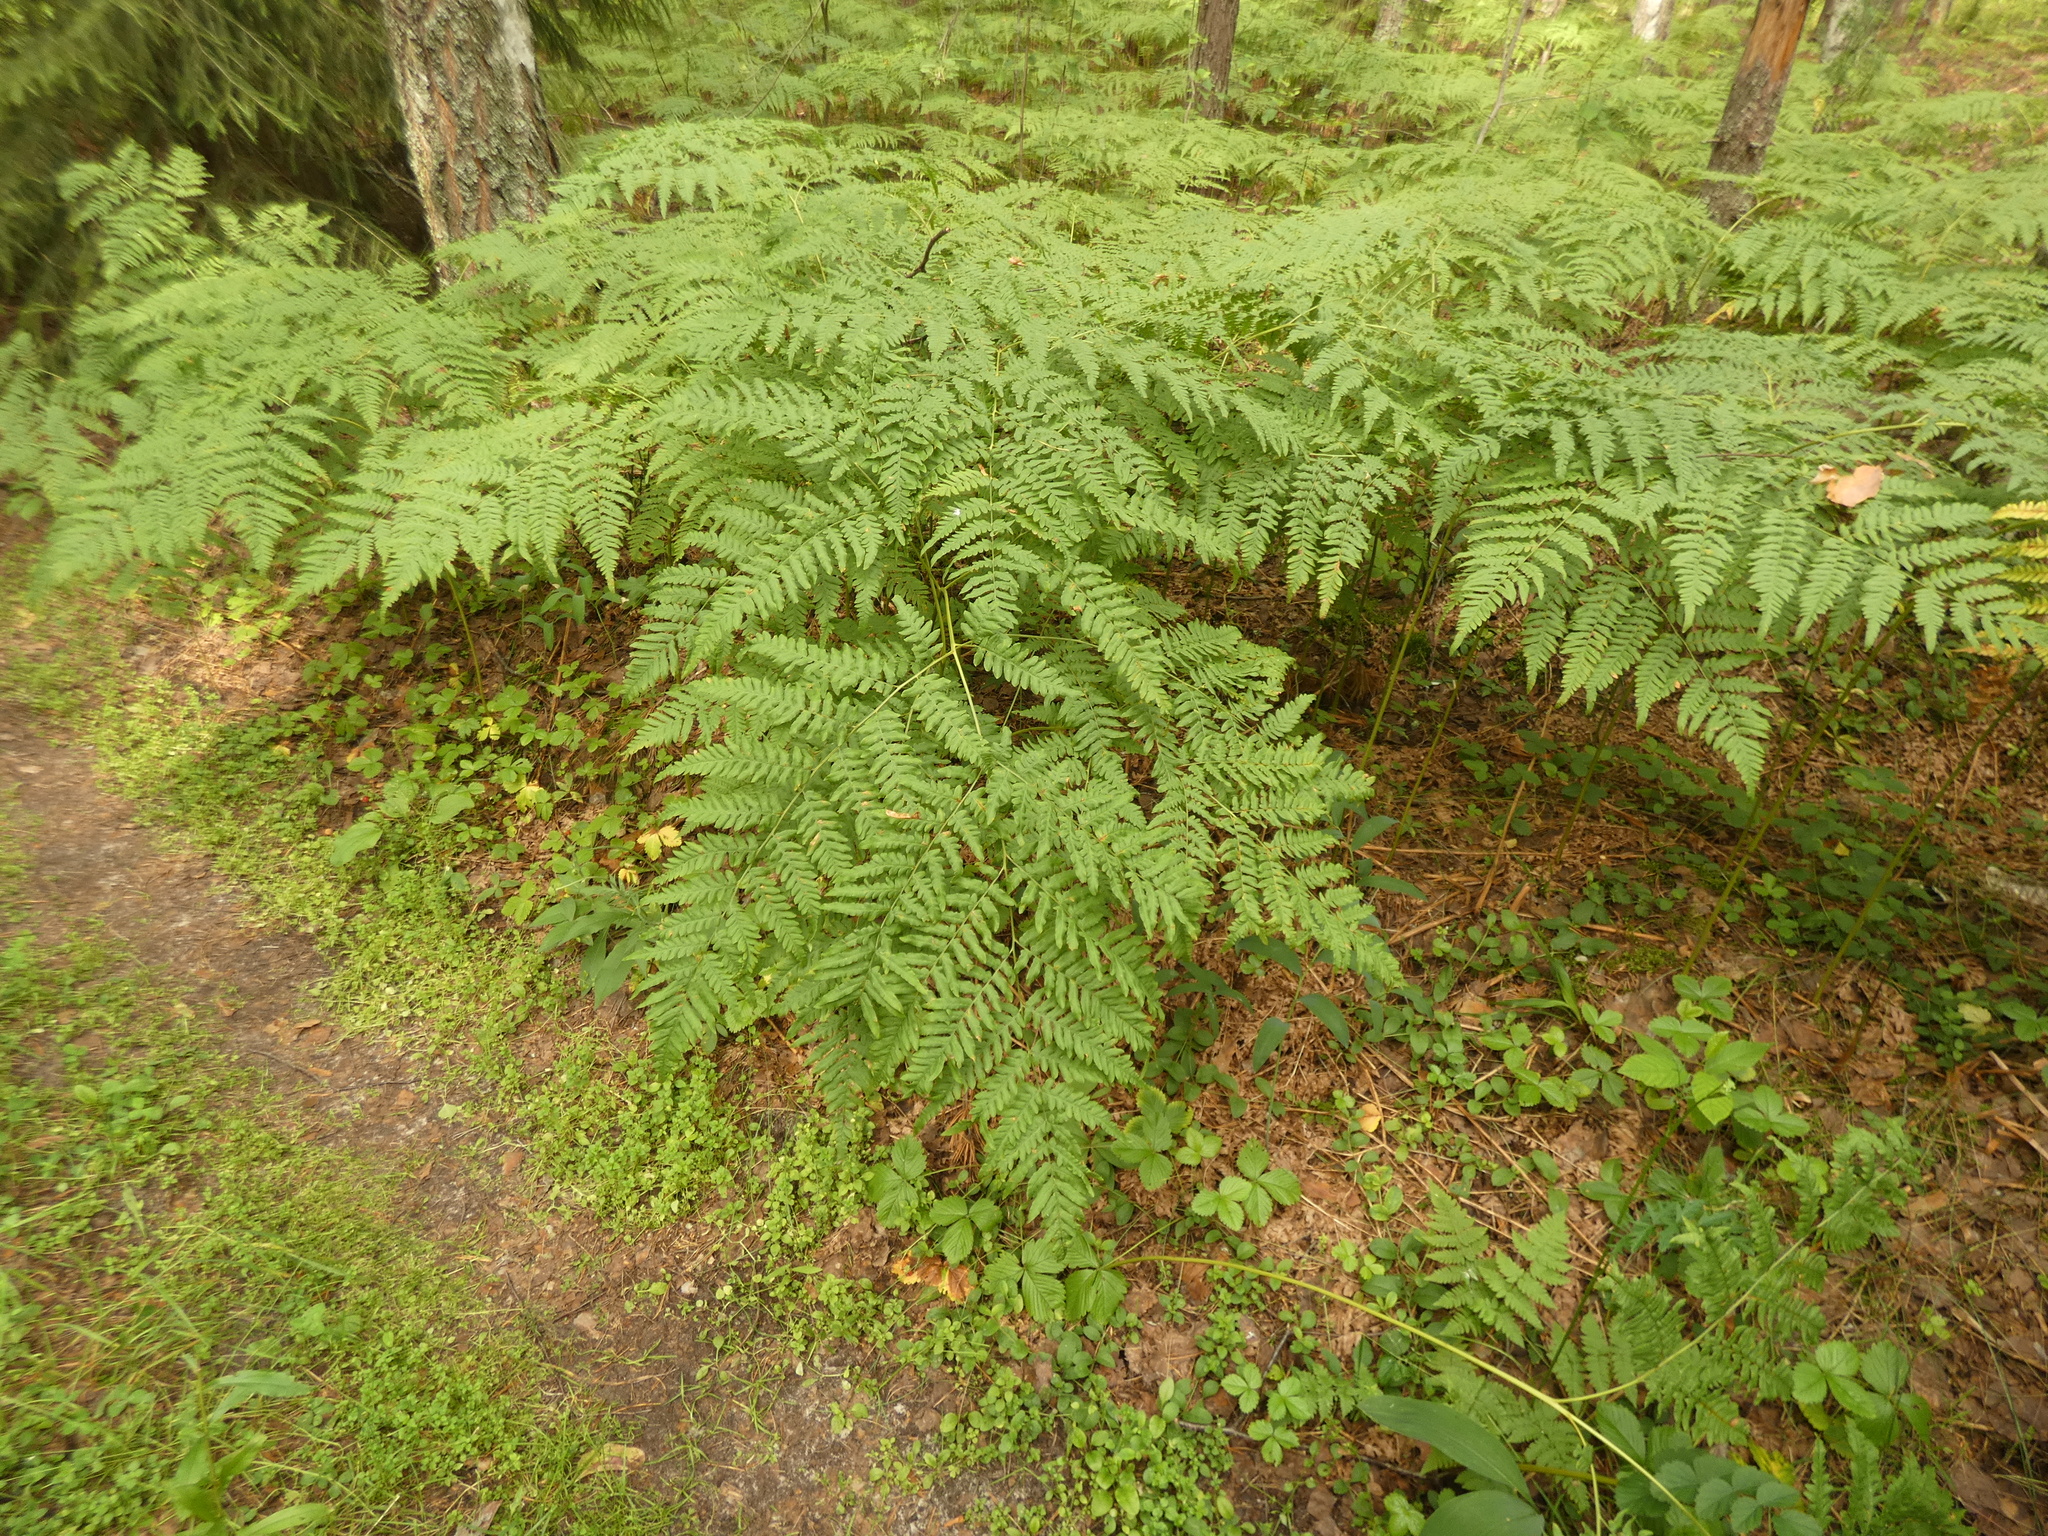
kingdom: Plantae
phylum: Tracheophyta
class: Polypodiopsida
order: Polypodiales
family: Dennstaedtiaceae
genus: Pteridium
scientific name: Pteridium aquilinum
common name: Bracken
